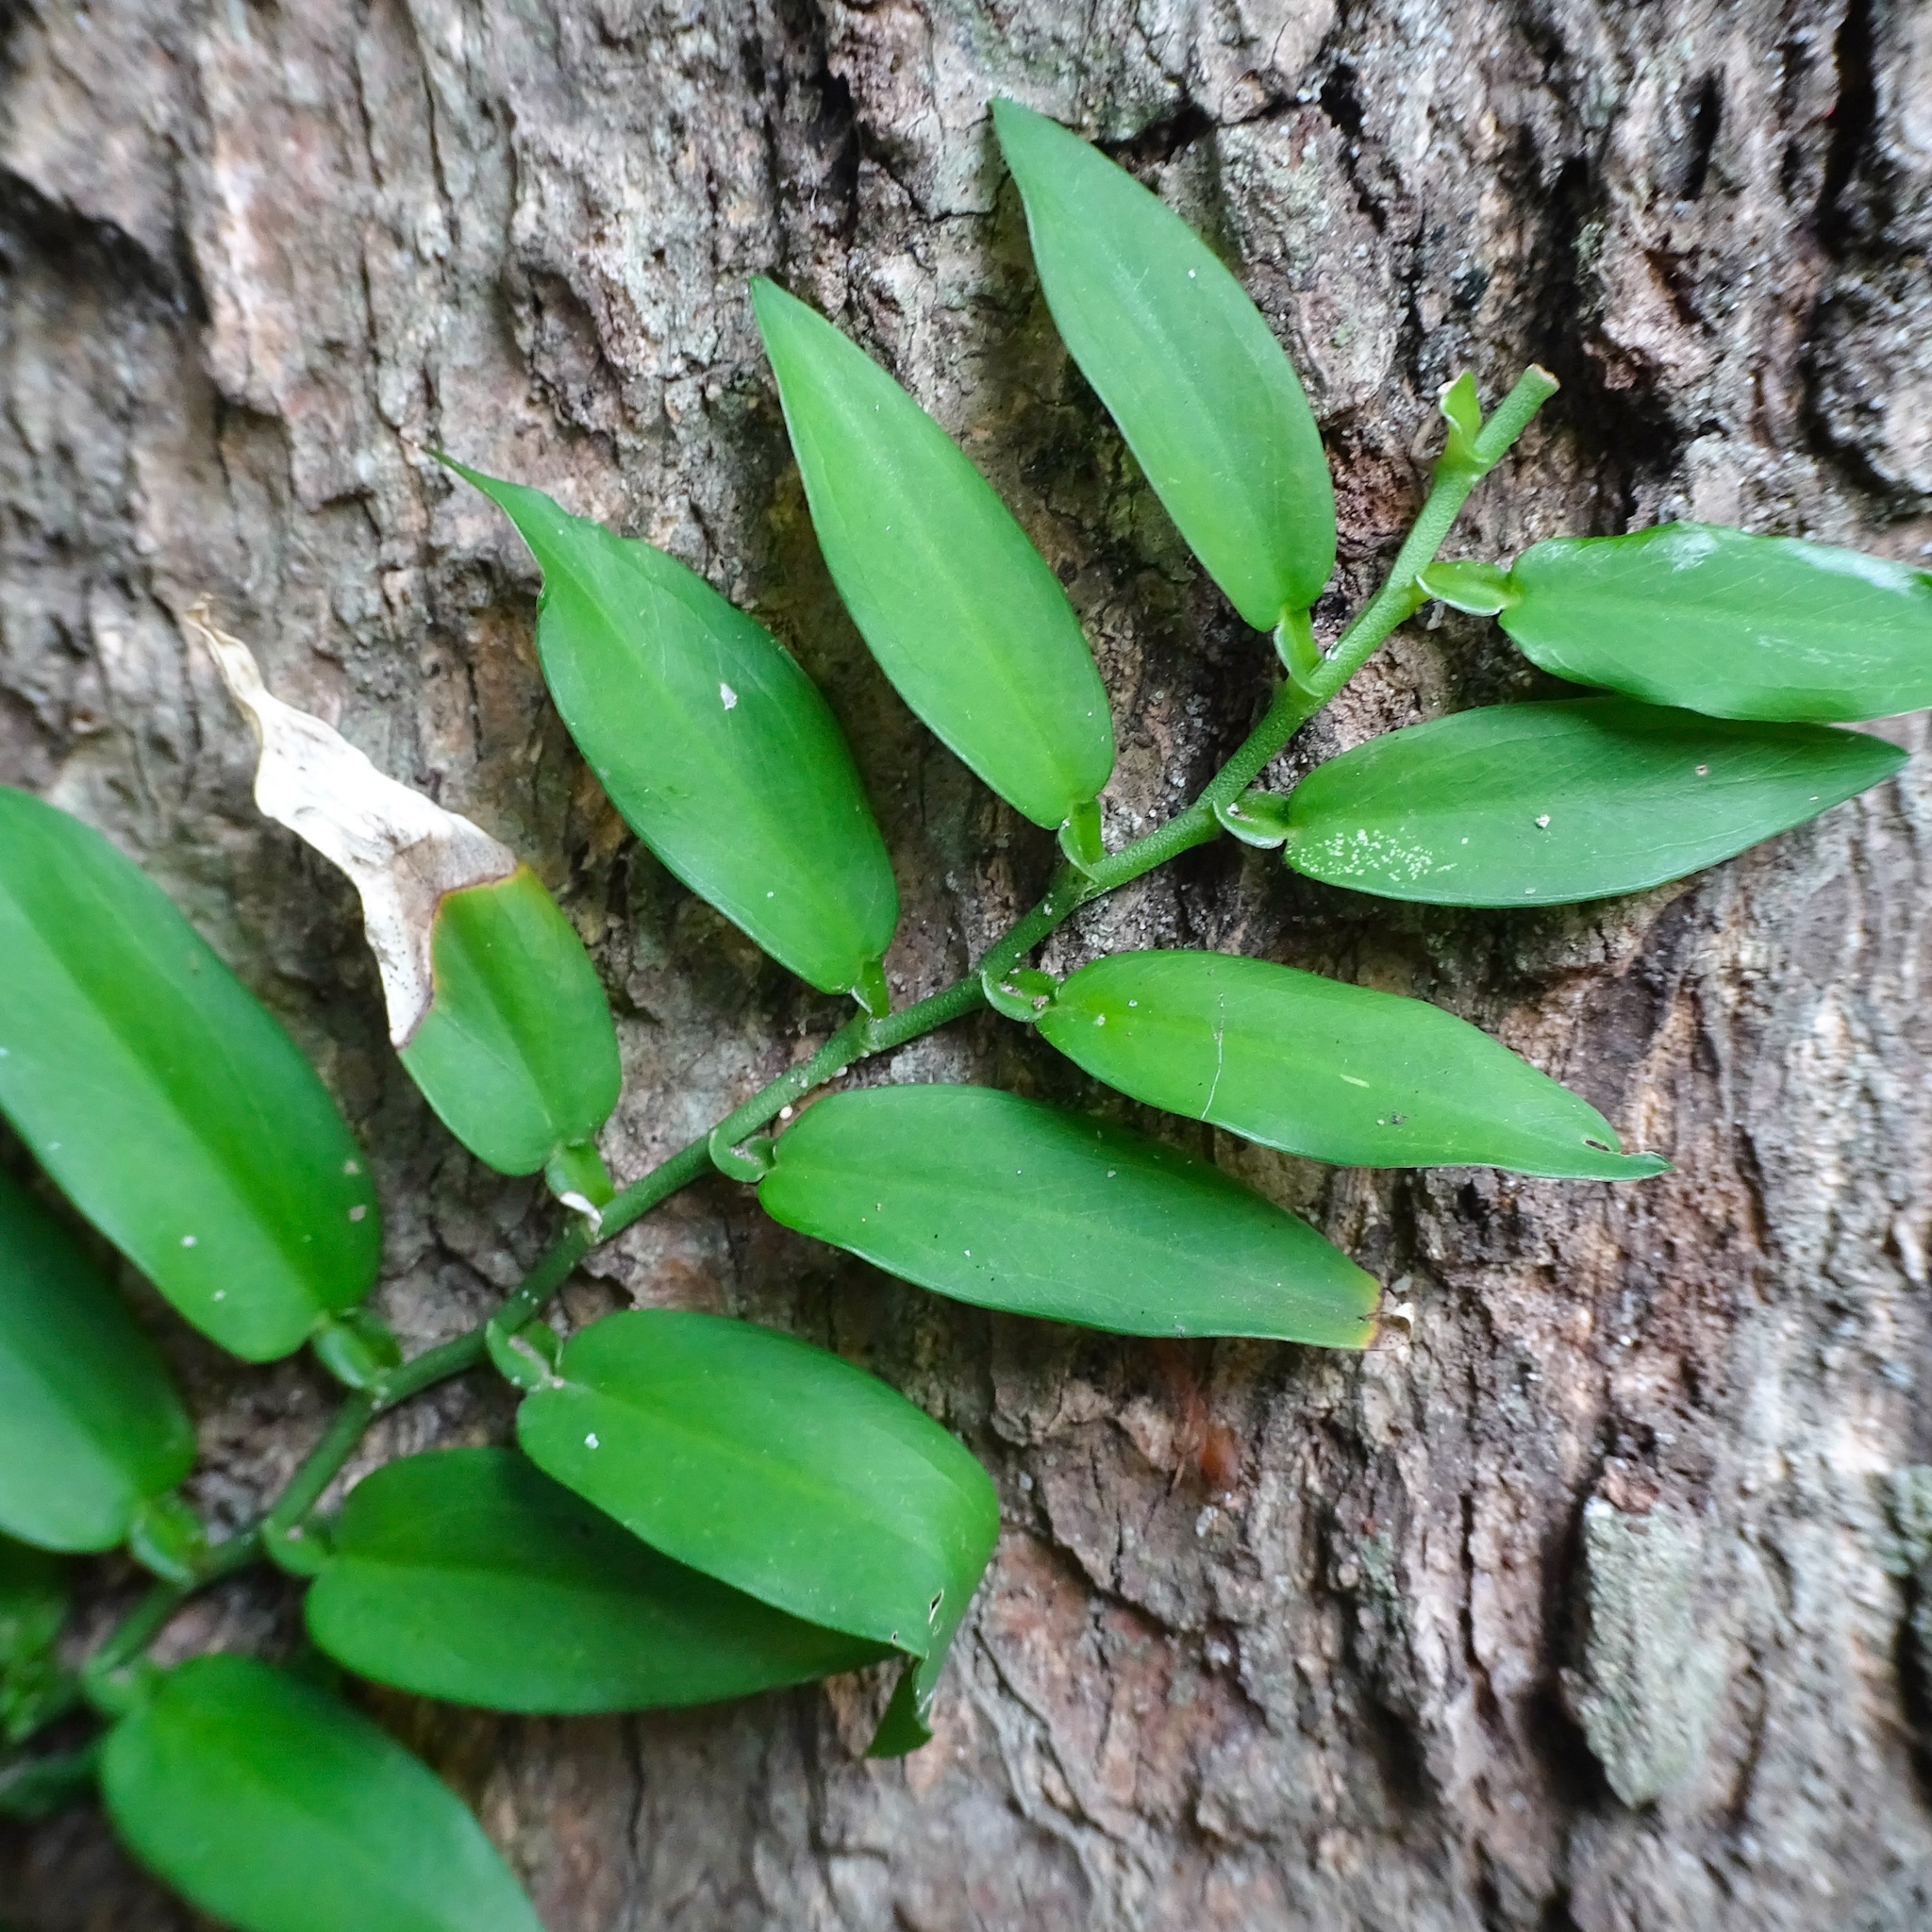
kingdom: Plantae
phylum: Tracheophyta
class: Liliopsida
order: Alismatales
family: Araceae
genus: Pothos
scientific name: Pothos scandens
